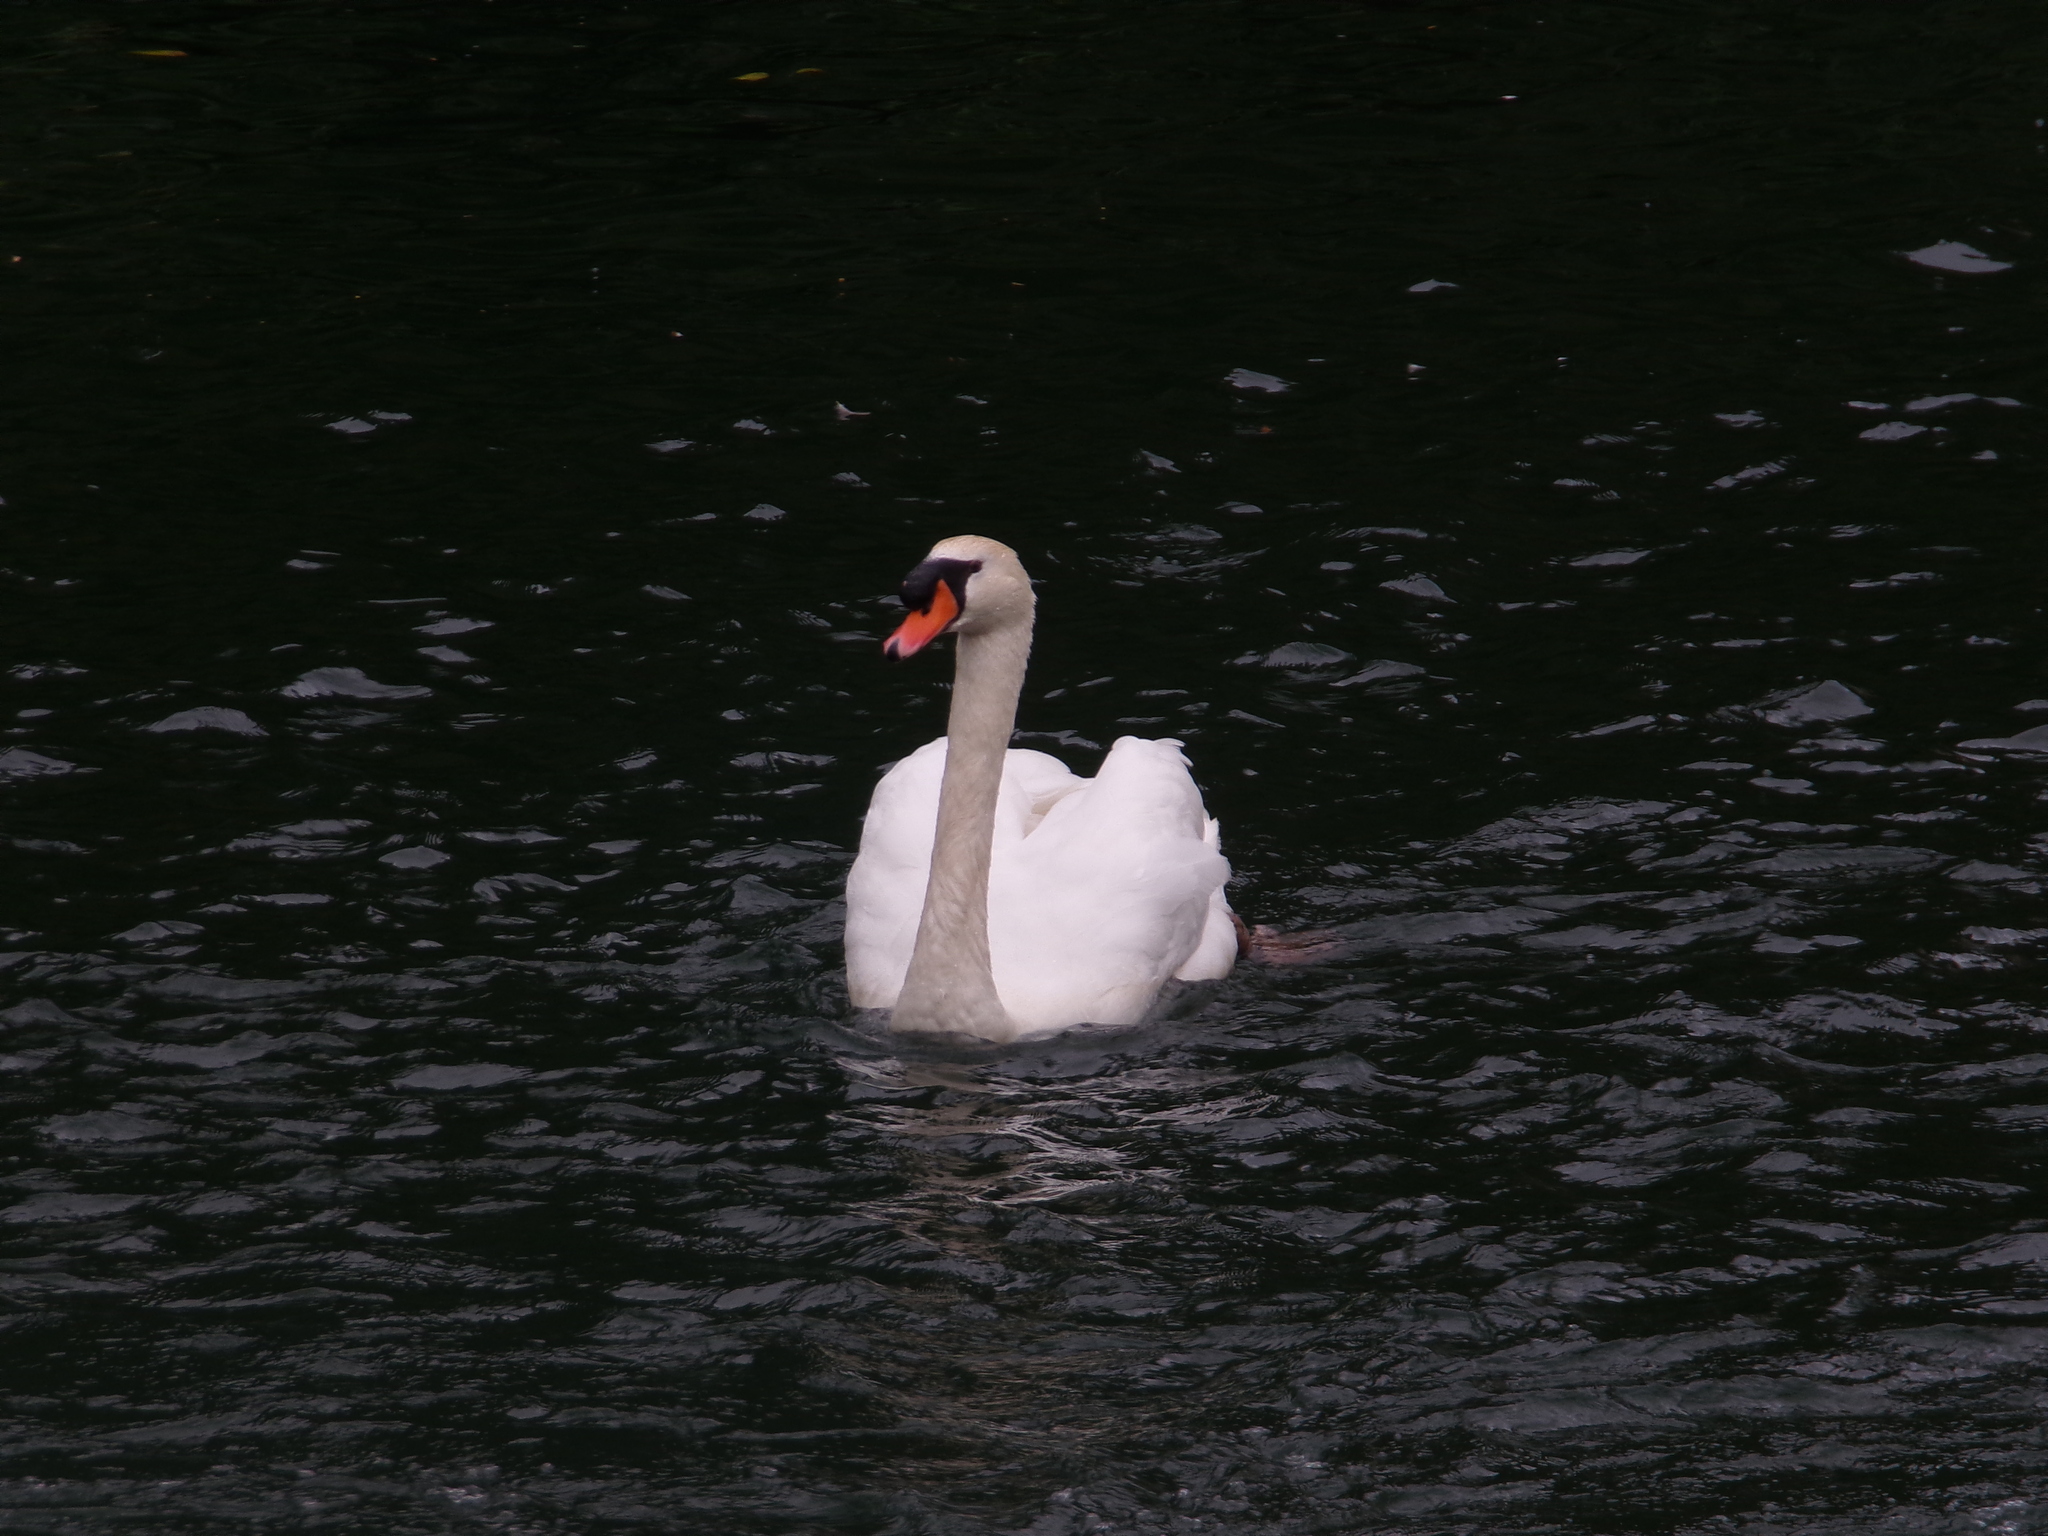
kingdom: Animalia
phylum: Chordata
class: Aves
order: Anseriformes
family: Anatidae
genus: Cygnus
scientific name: Cygnus olor
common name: Mute swan
